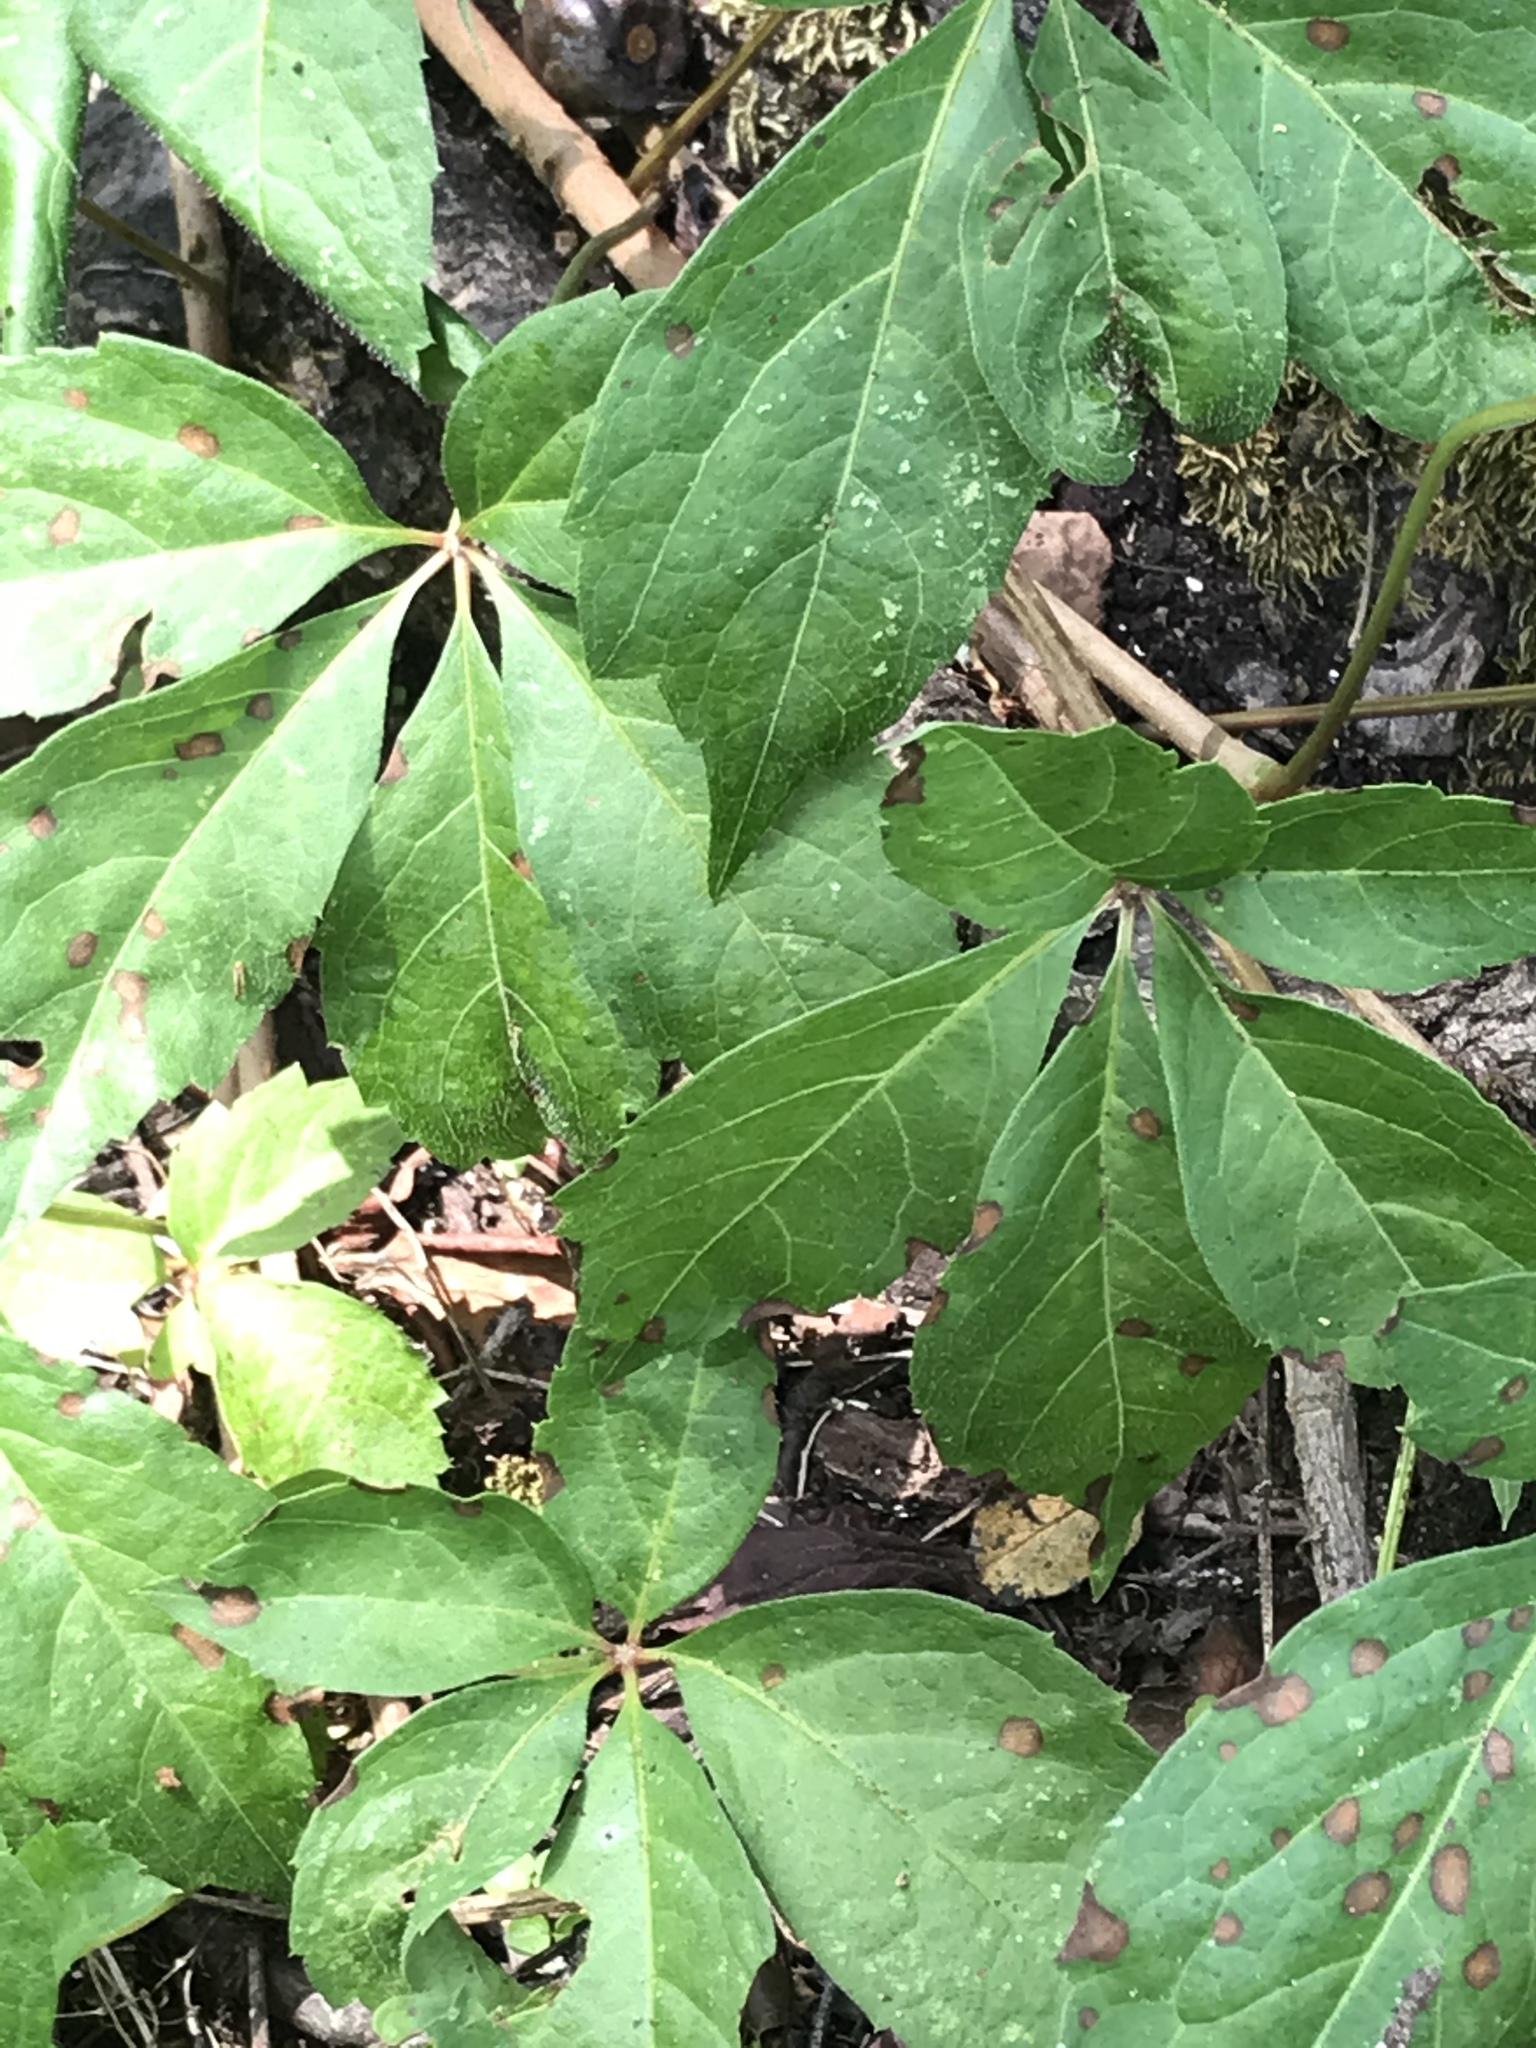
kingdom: Plantae
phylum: Tracheophyta
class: Magnoliopsida
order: Vitales
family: Vitaceae
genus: Parthenocissus
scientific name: Parthenocissus quinquefolia
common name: Virginia-creeper
